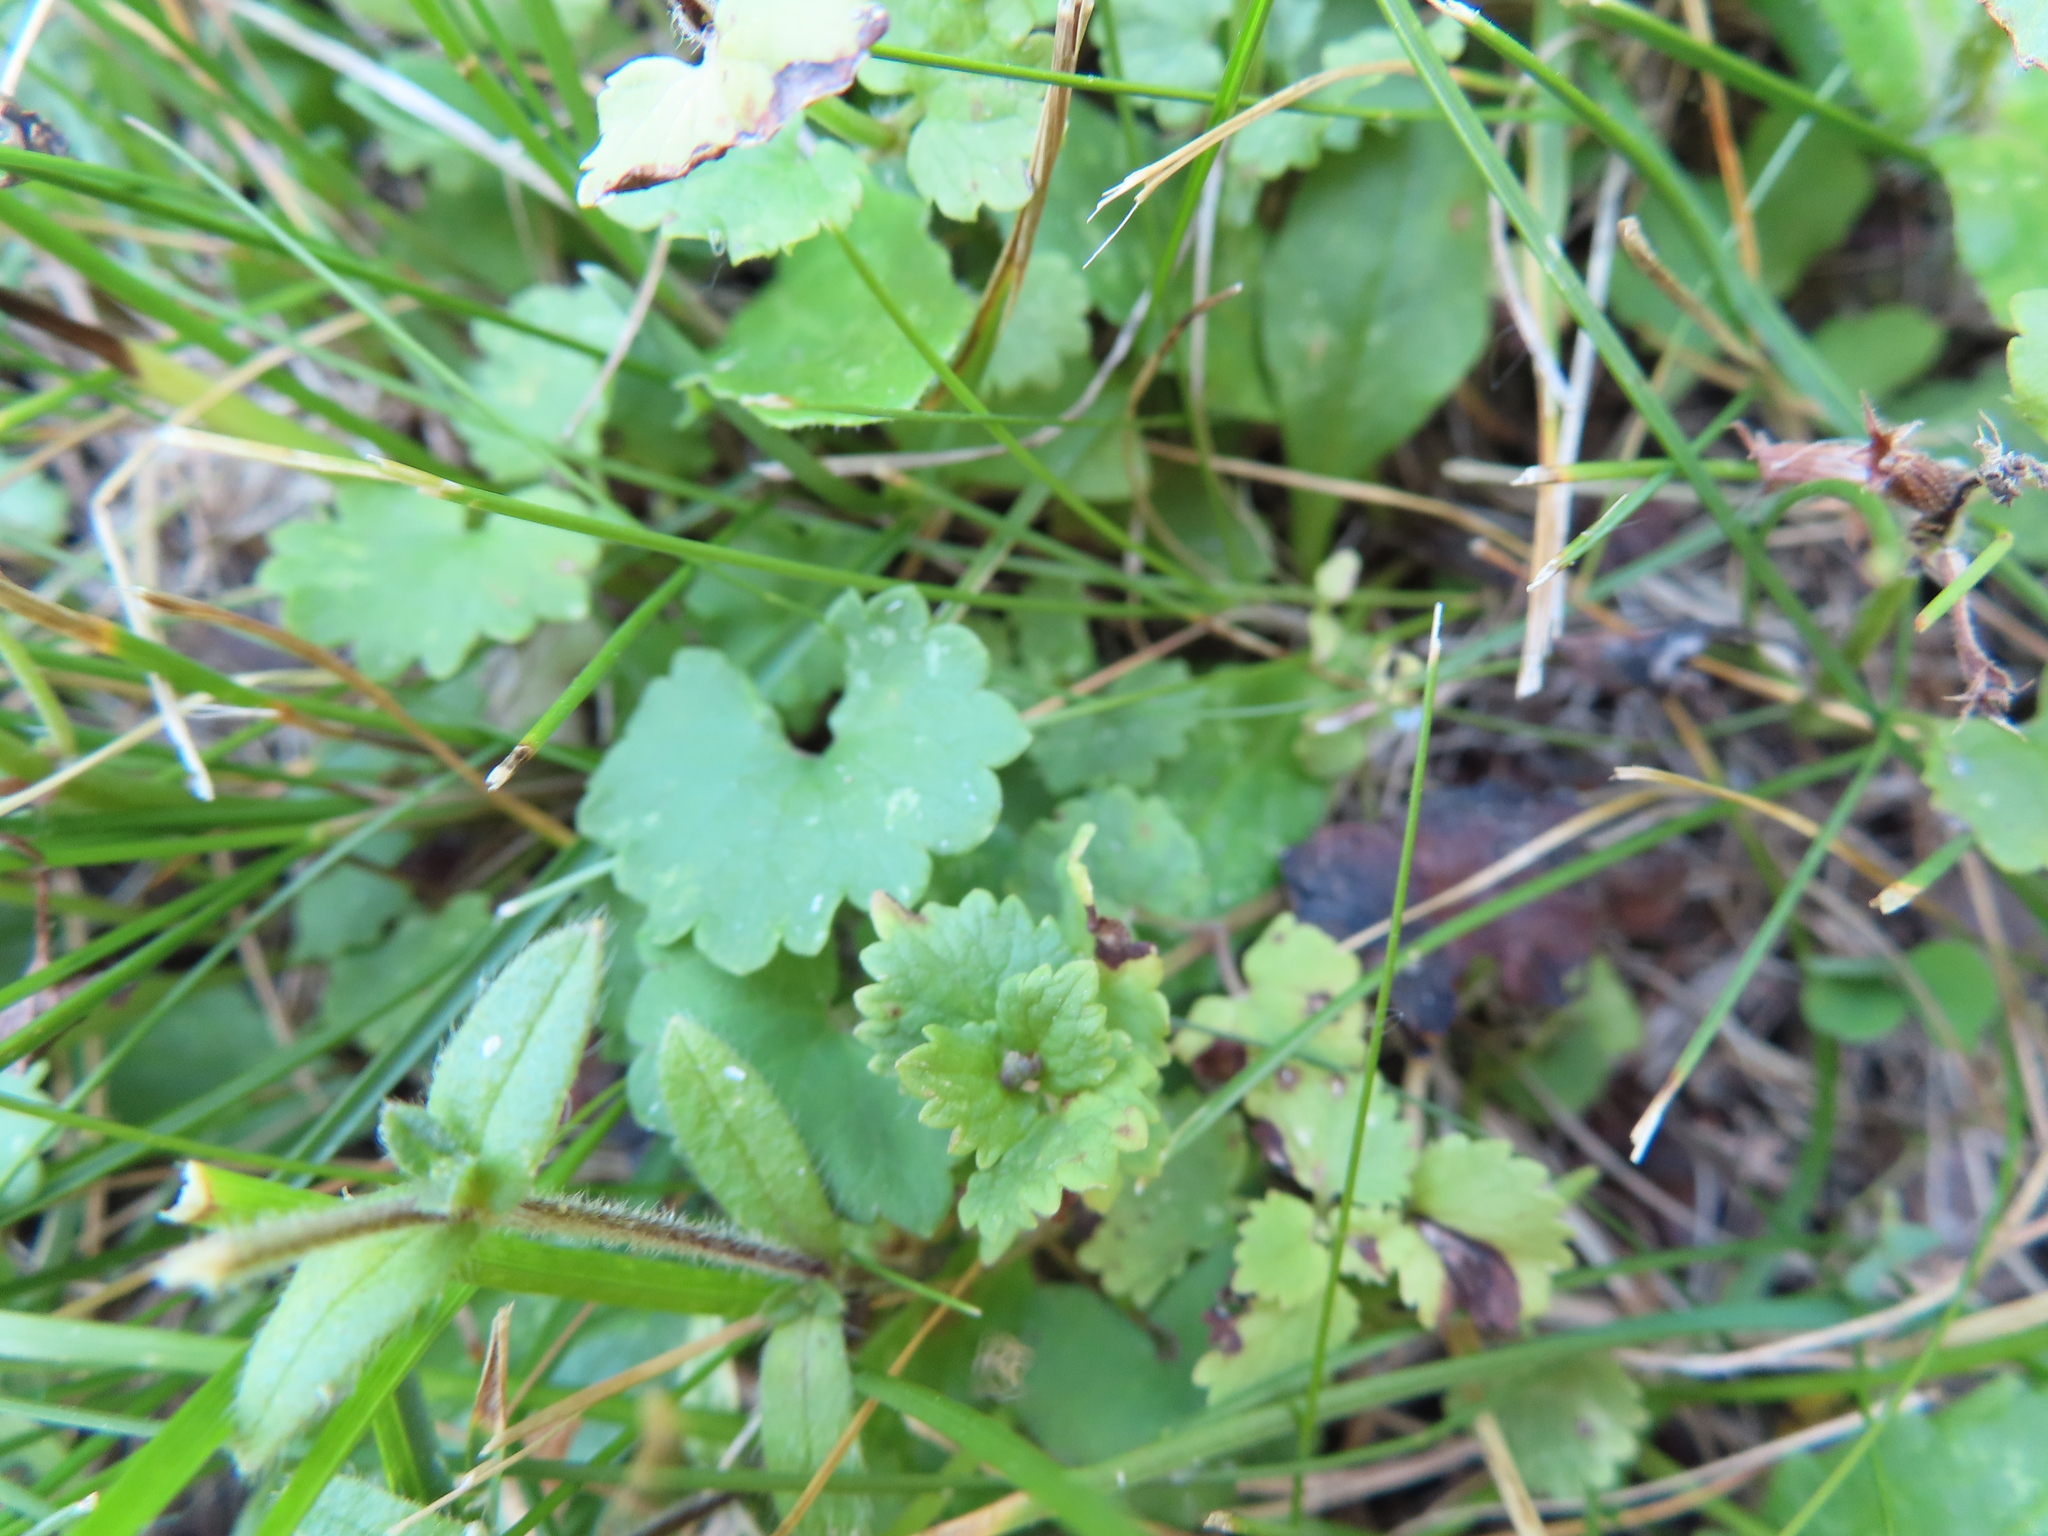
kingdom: Plantae
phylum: Tracheophyta
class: Magnoliopsida
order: Lamiales
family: Lamiaceae
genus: Glechoma
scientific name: Glechoma hederacea
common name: Ground ivy
